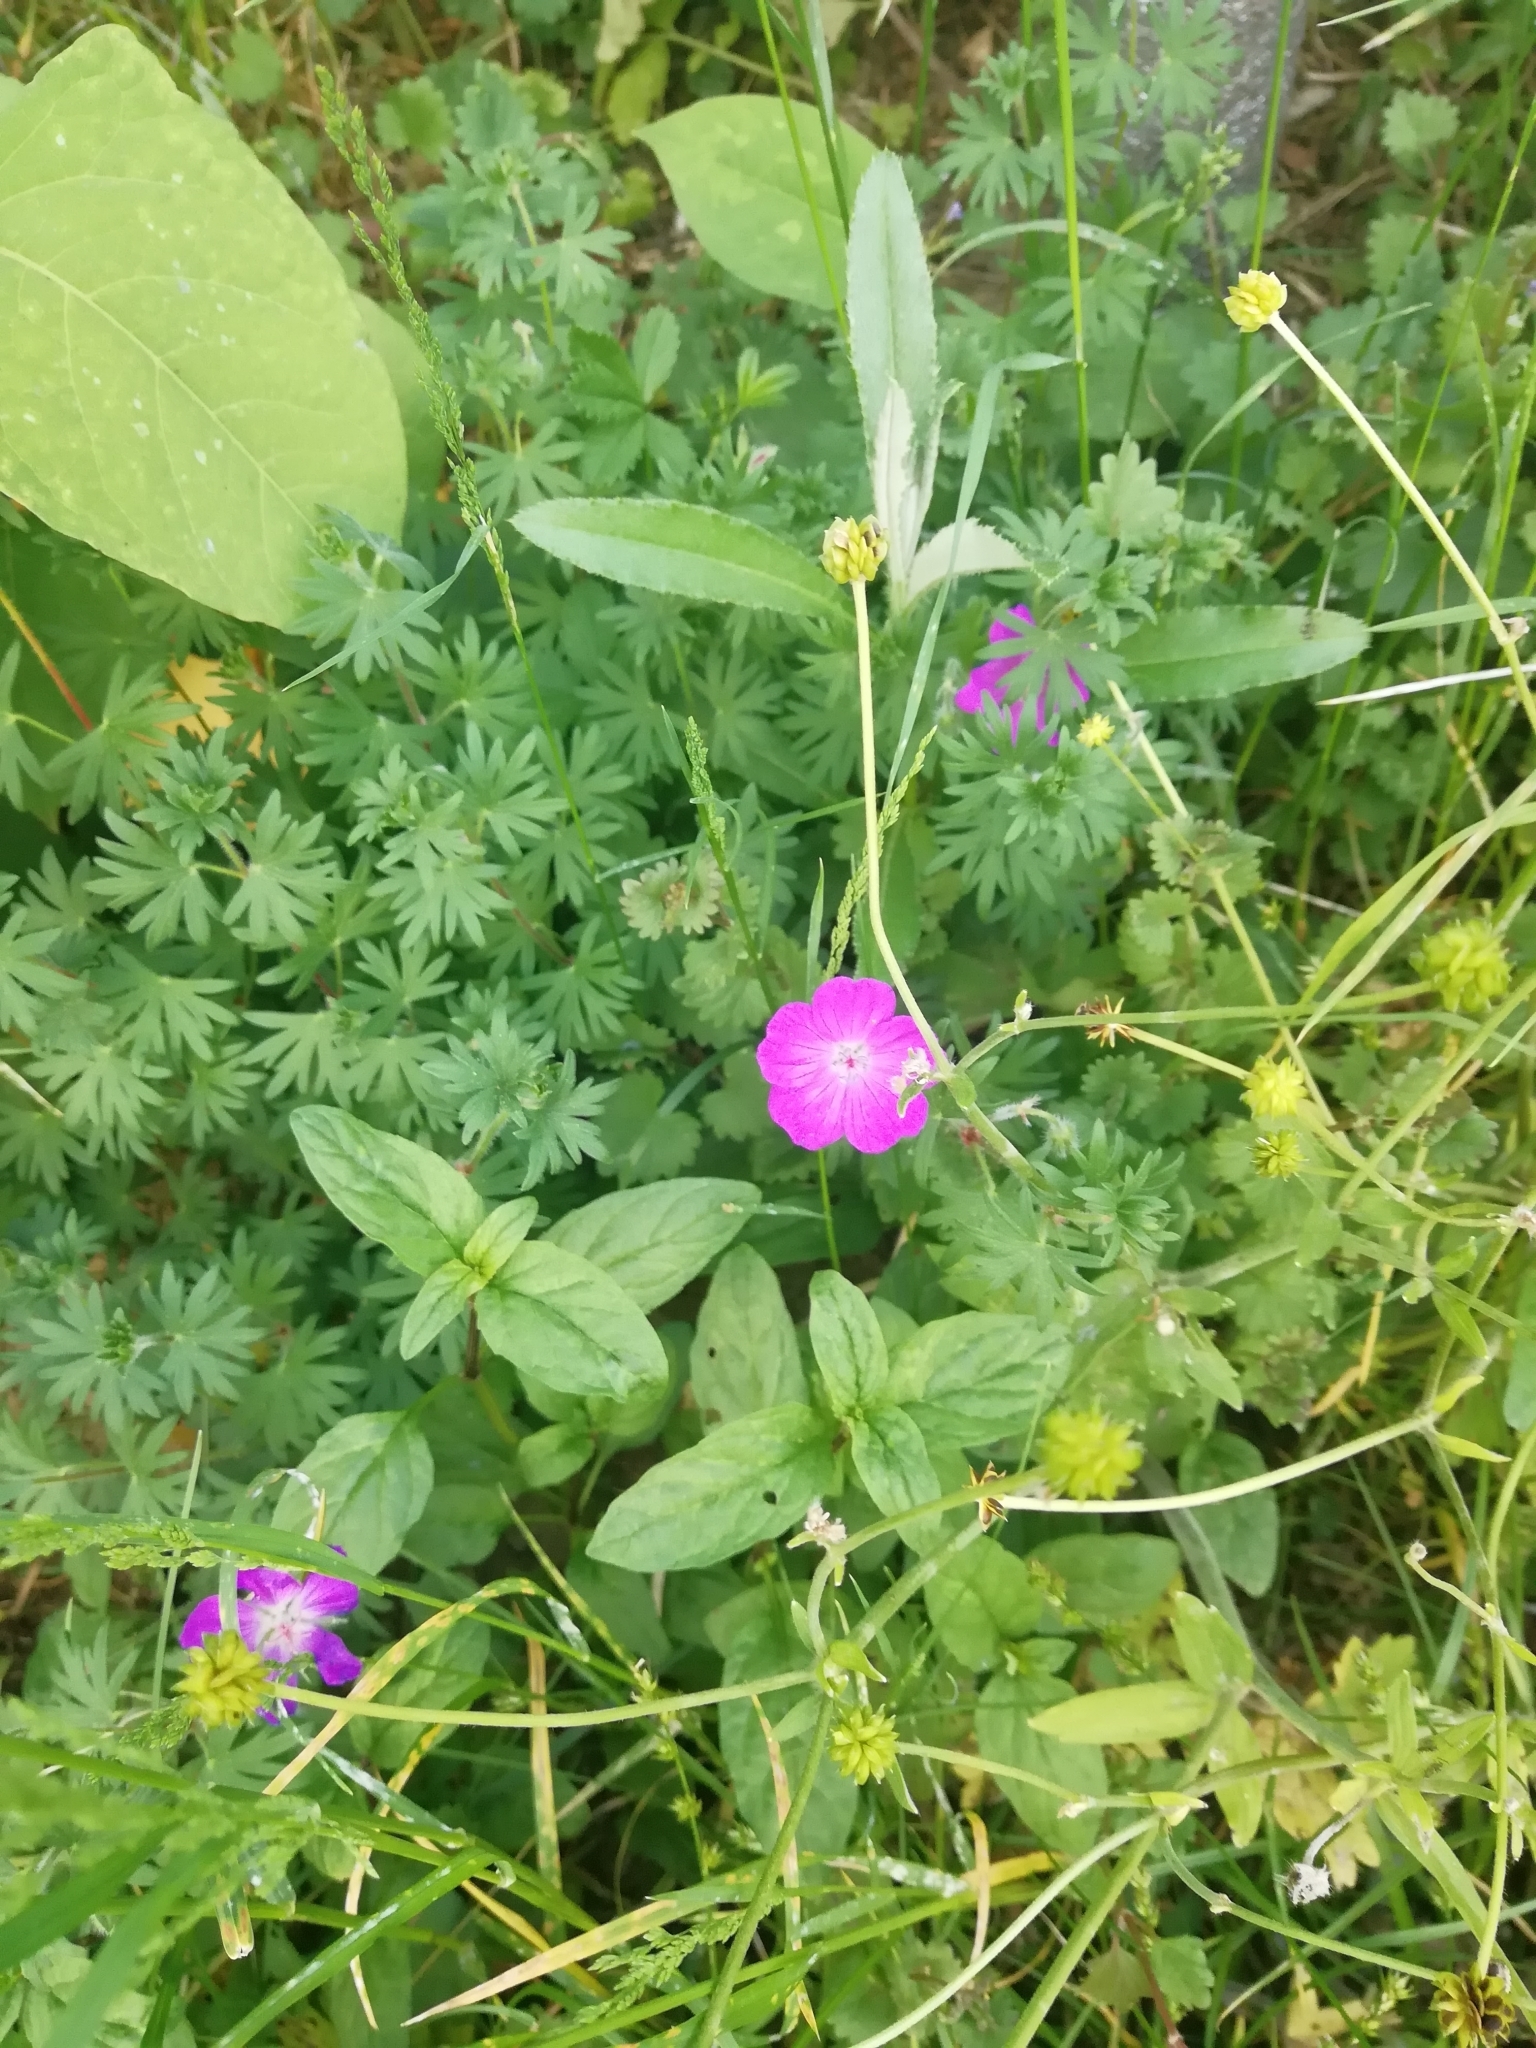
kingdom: Plantae
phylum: Tracheophyta
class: Magnoliopsida
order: Geraniales
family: Geraniaceae
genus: Geranium
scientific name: Geranium sanguineum
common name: Bloody crane's-bill
